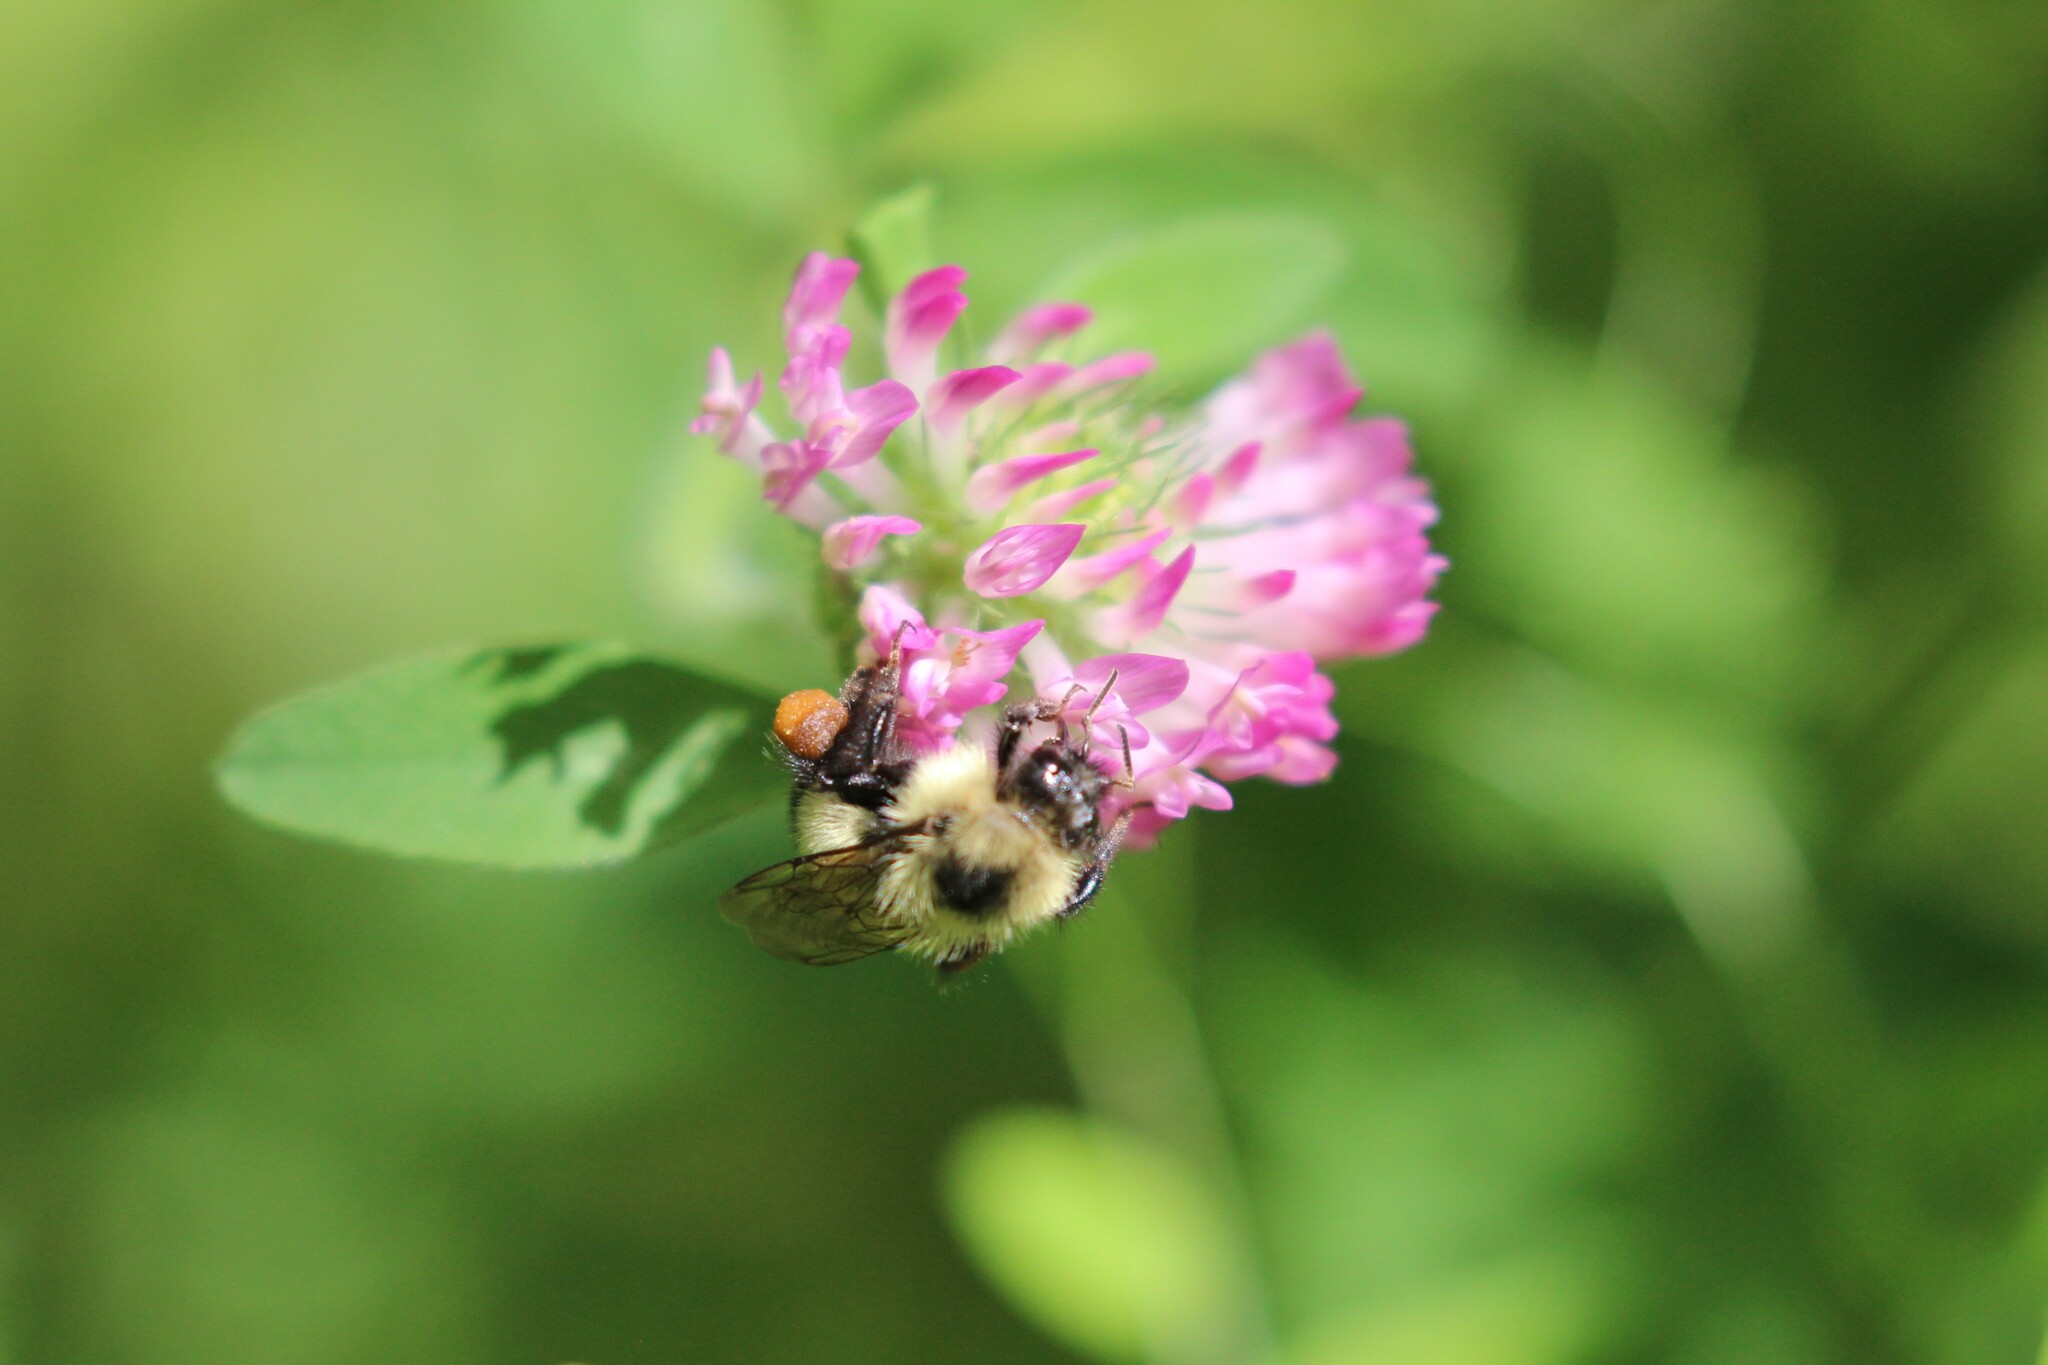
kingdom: Plantae
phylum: Tracheophyta
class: Magnoliopsida
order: Fabales
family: Fabaceae
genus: Trifolium
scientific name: Trifolium pratense
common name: Red clover
